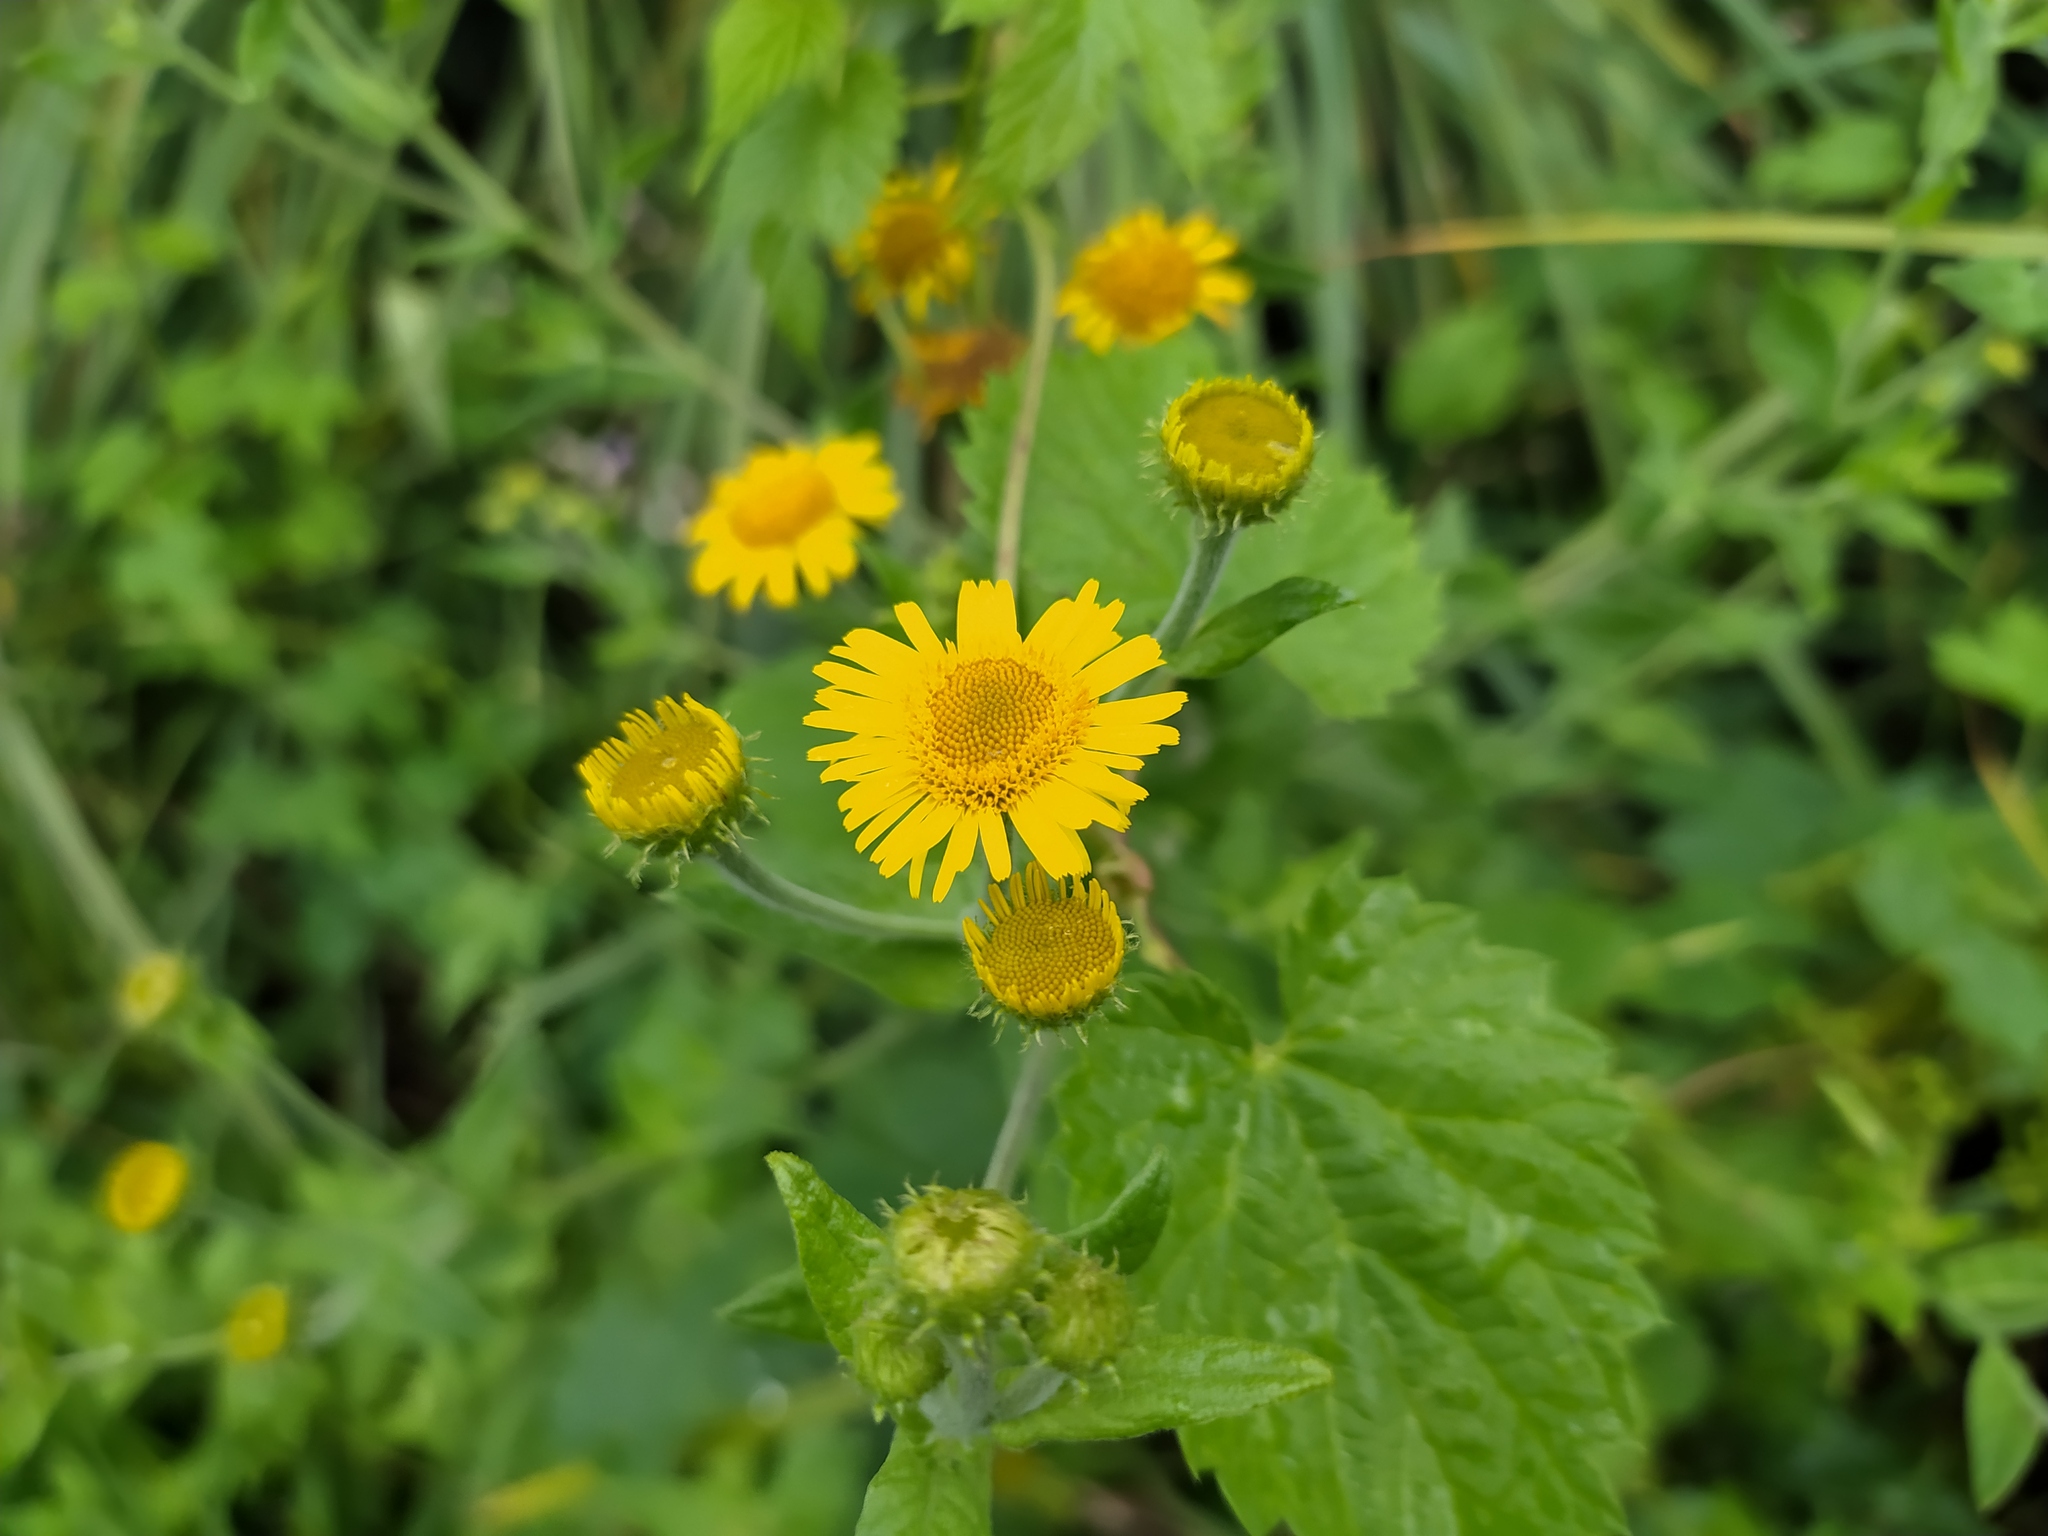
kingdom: Plantae
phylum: Tracheophyta
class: Magnoliopsida
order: Asterales
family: Asteraceae
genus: Pulicaria
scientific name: Pulicaria dysenterica
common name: Common fleabane
